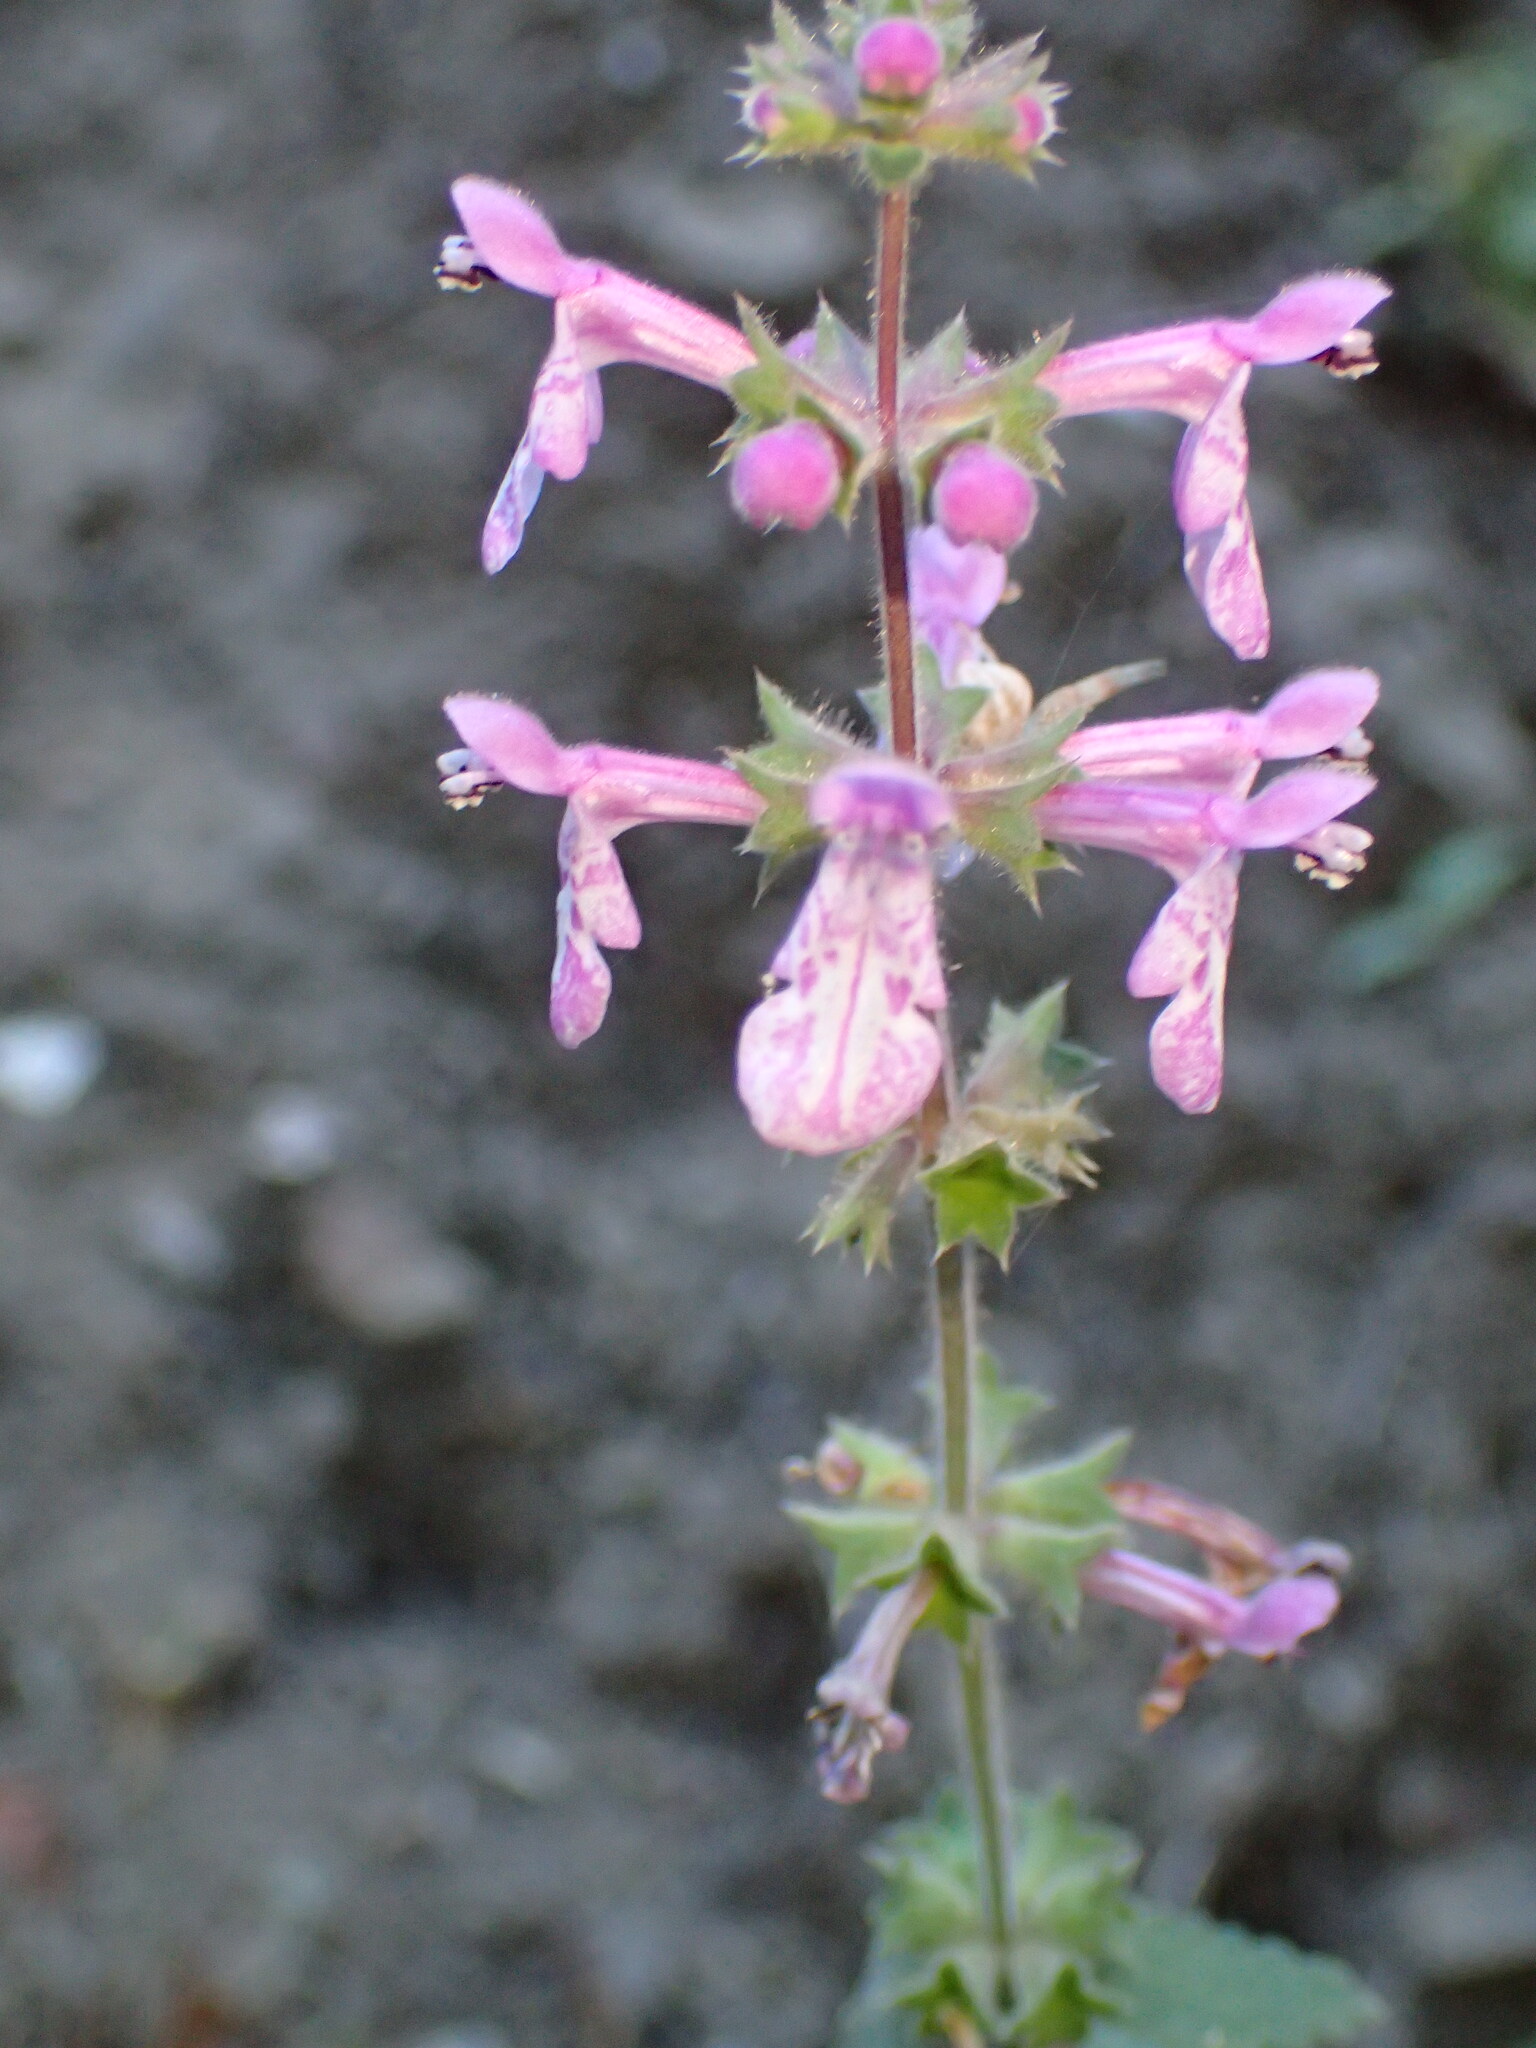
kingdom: Plantae
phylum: Tracheophyta
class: Magnoliopsida
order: Lamiales
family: Lamiaceae
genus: Stachys
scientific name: Stachys bullata
